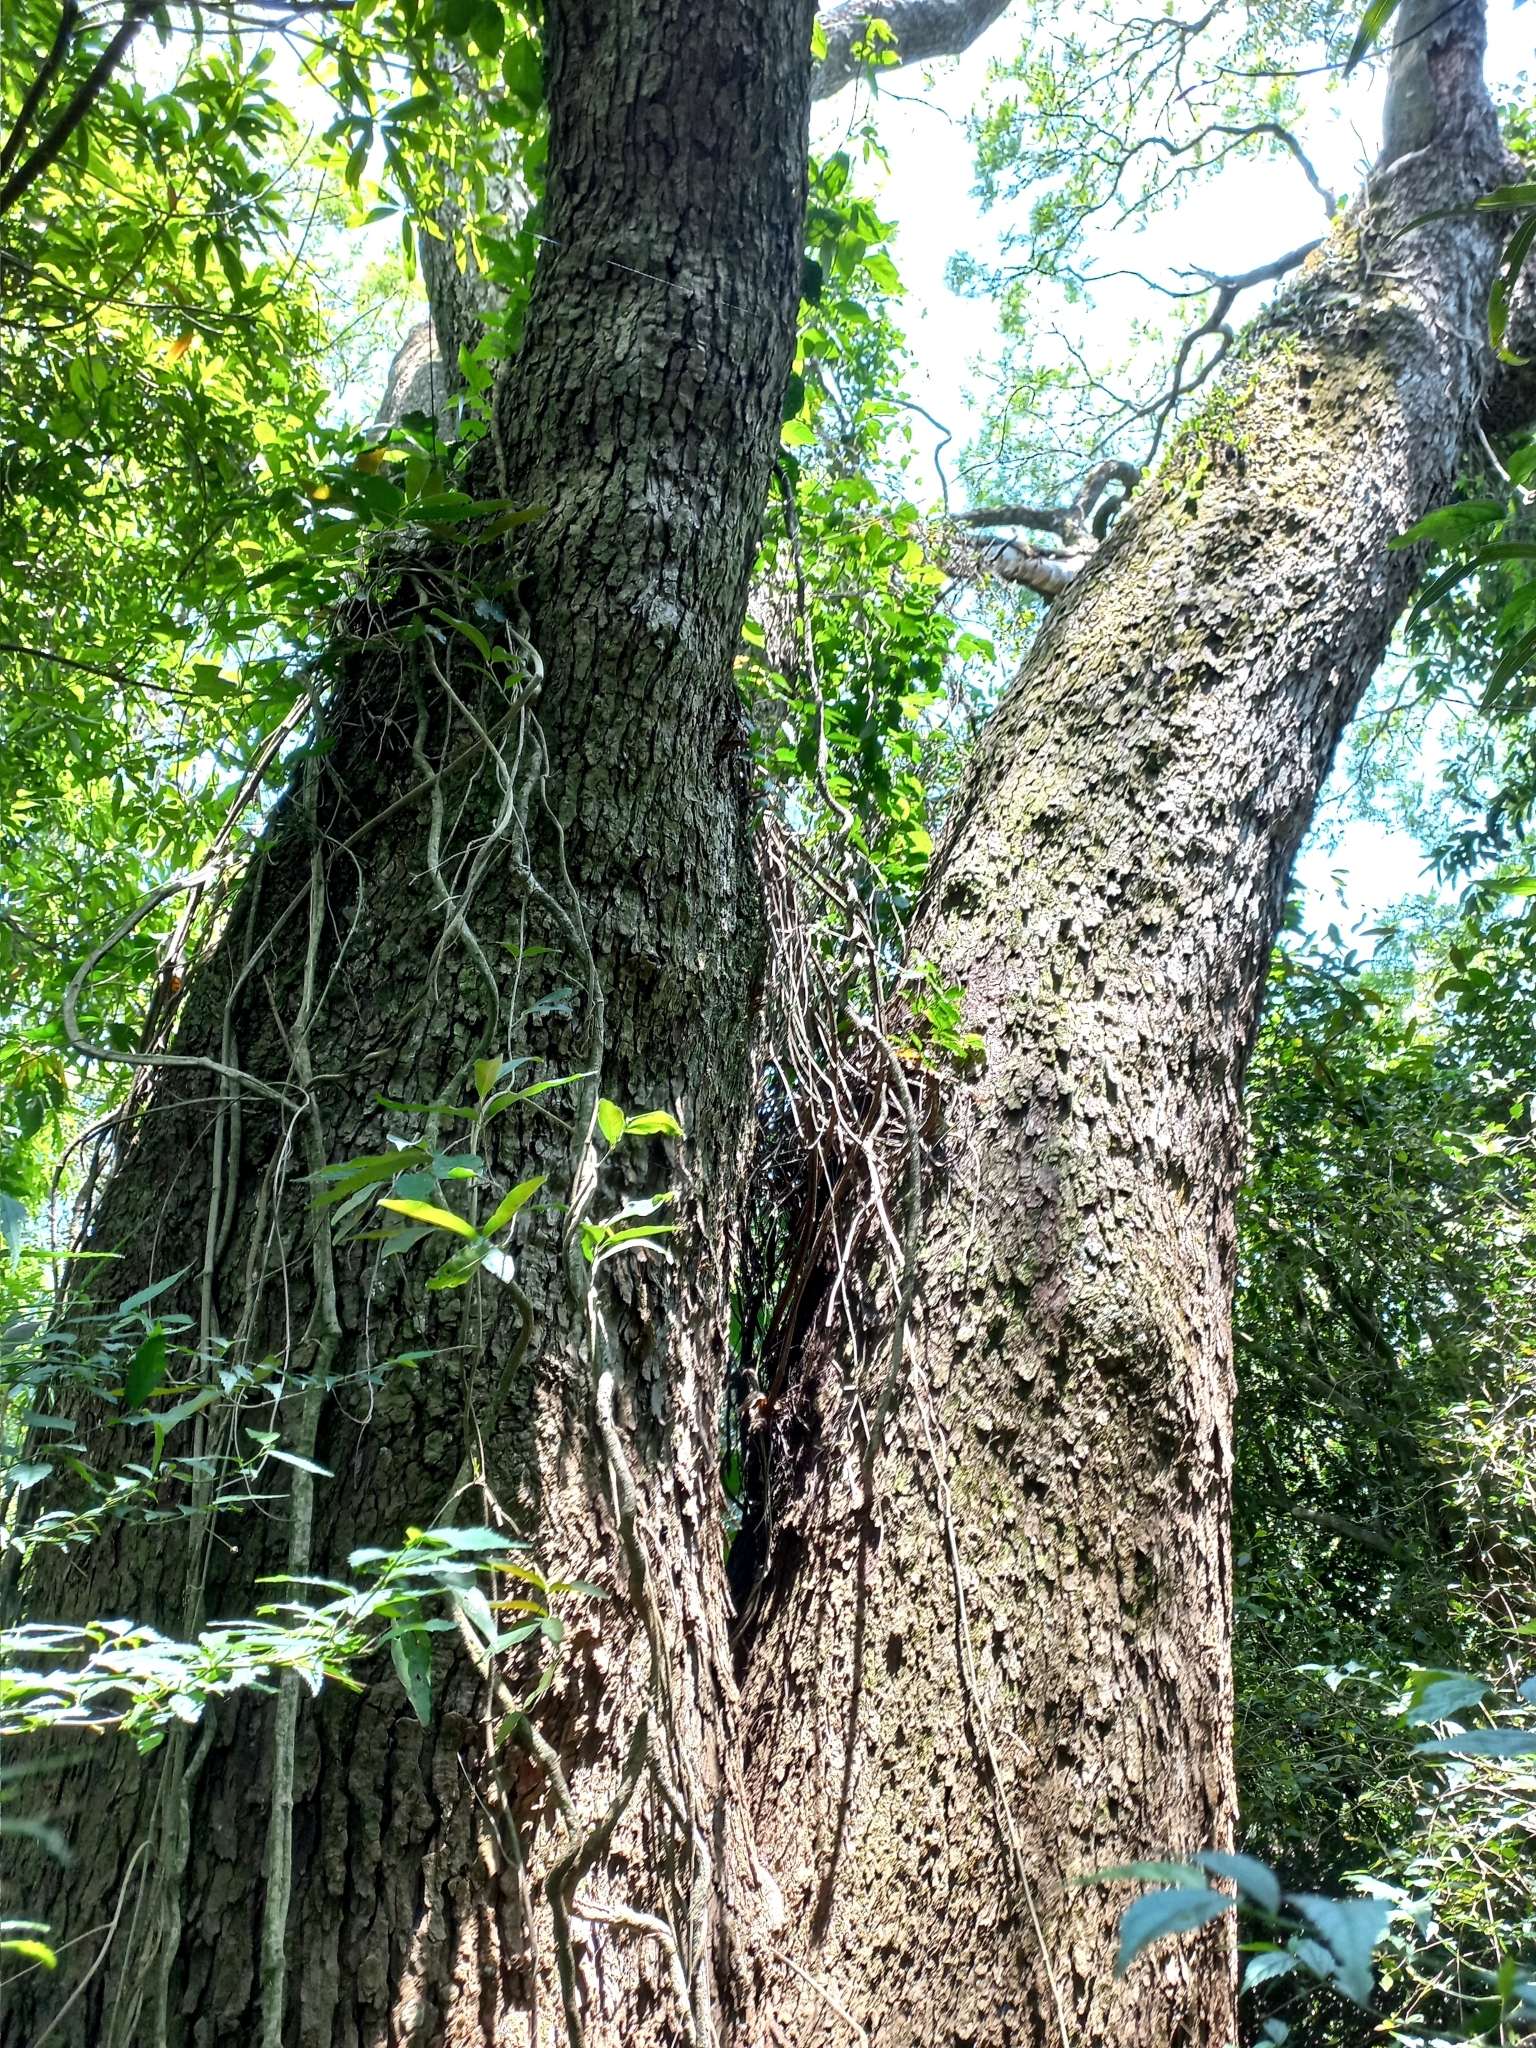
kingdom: Plantae
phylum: Tracheophyta
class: Magnoliopsida
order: Fabales
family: Fabaceae
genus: Peltophorum
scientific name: Peltophorum dubium
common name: Horsebush
